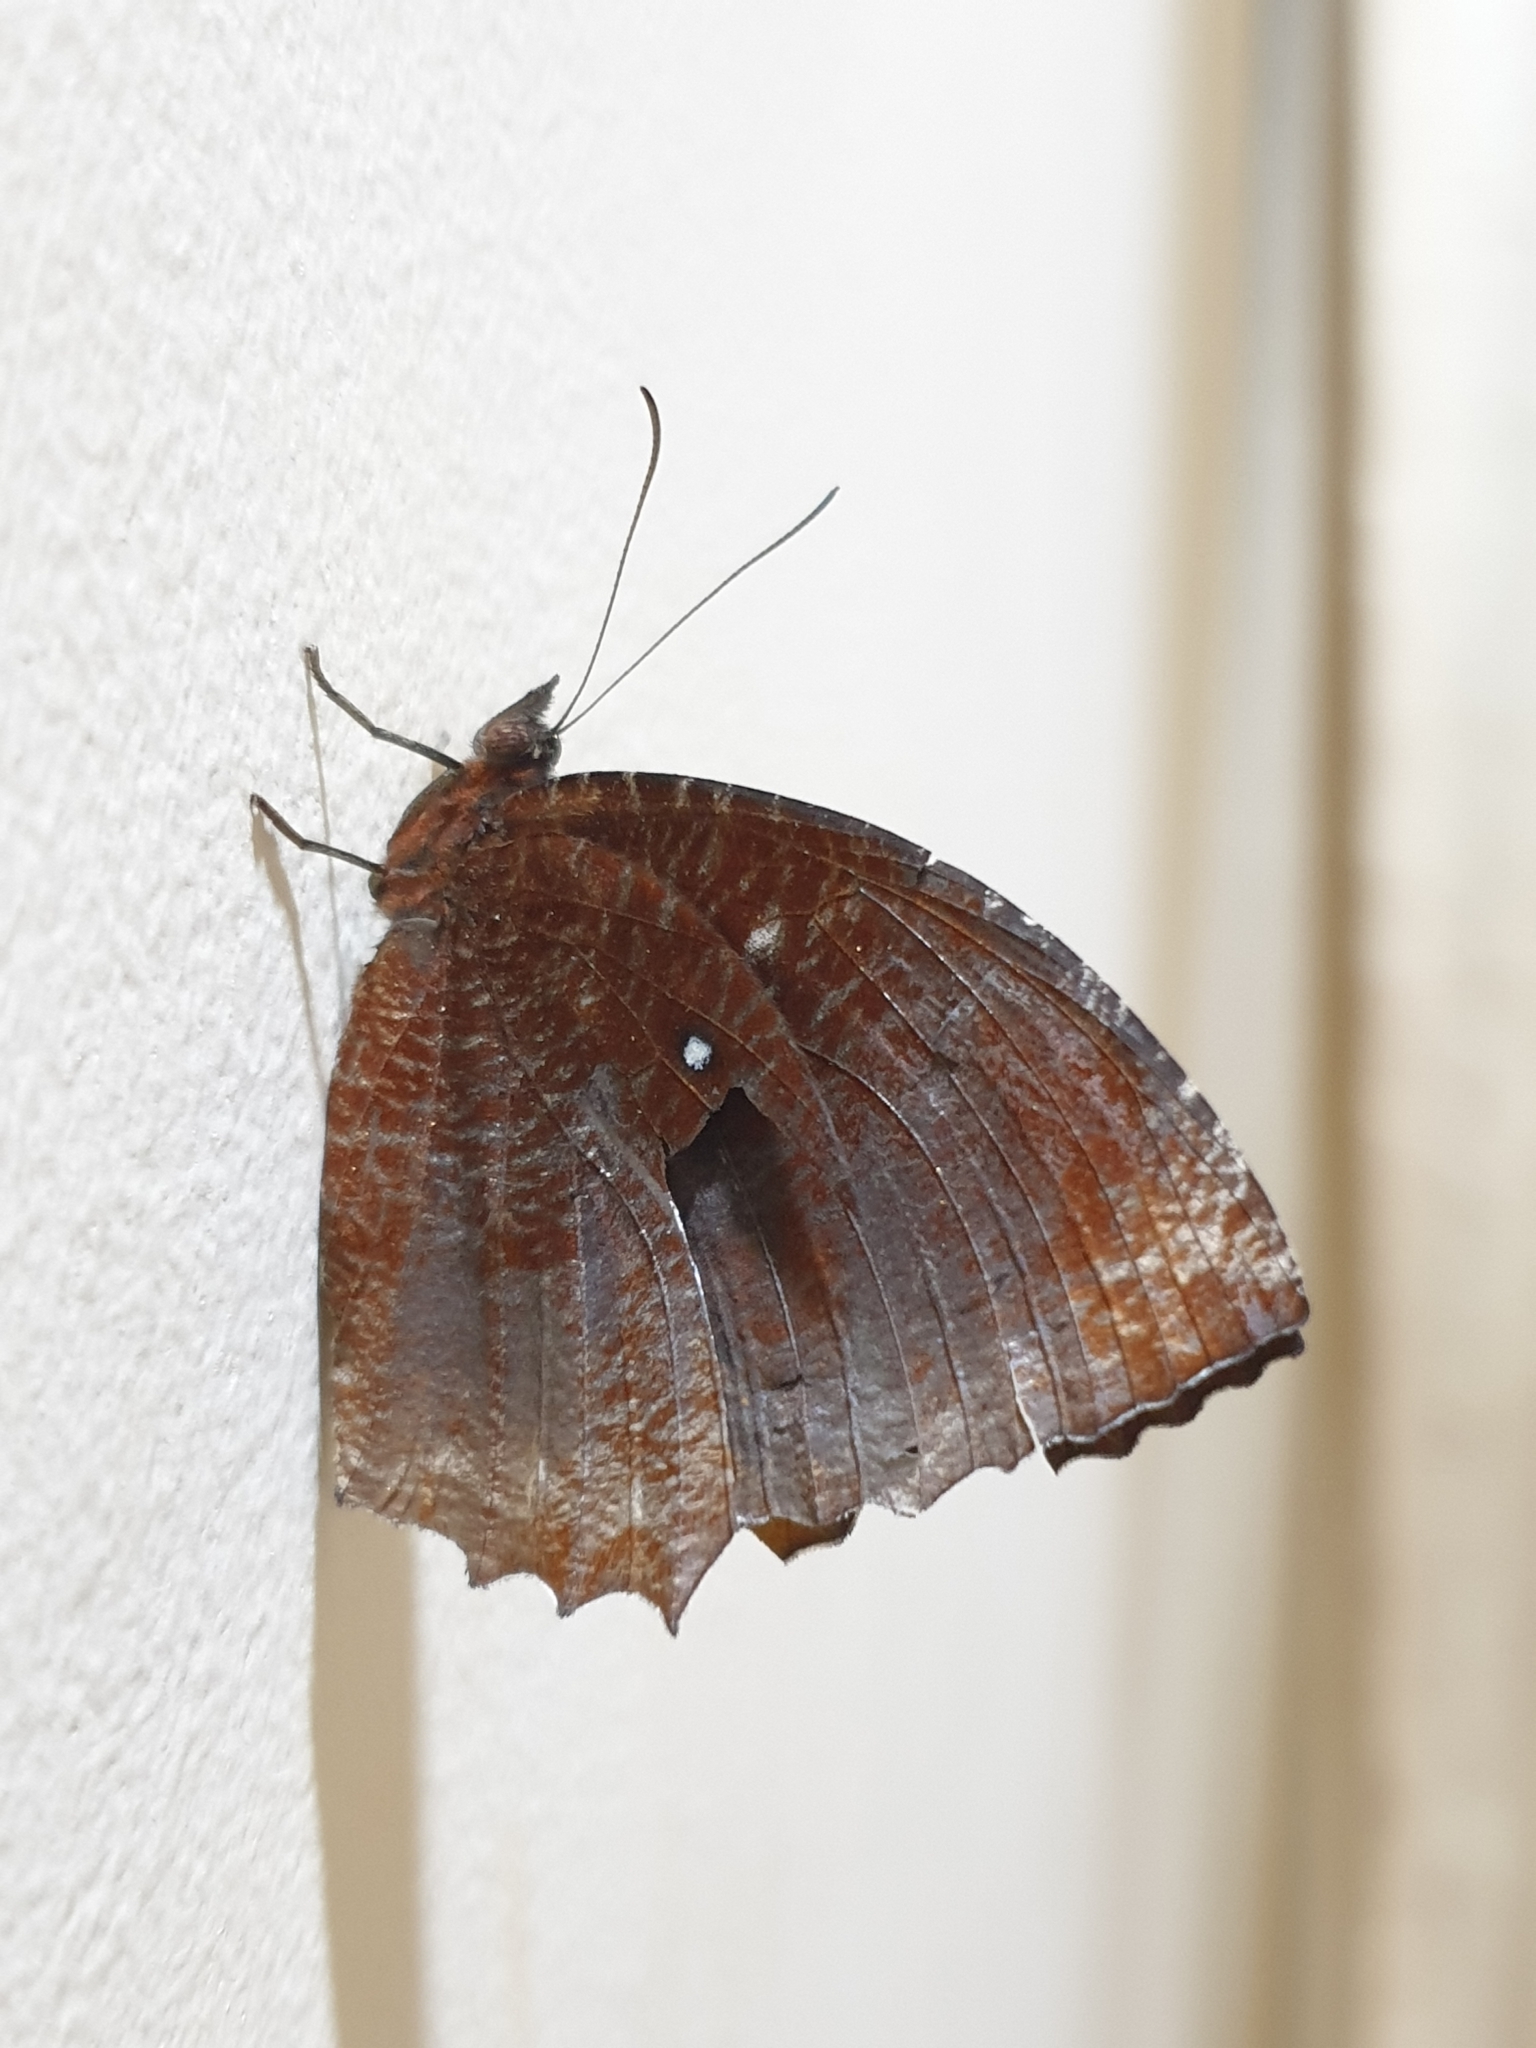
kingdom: Animalia
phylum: Arthropoda
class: Insecta
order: Lepidoptera
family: Nymphalidae
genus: Elymnias
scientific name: Elymnias hypermnestra
